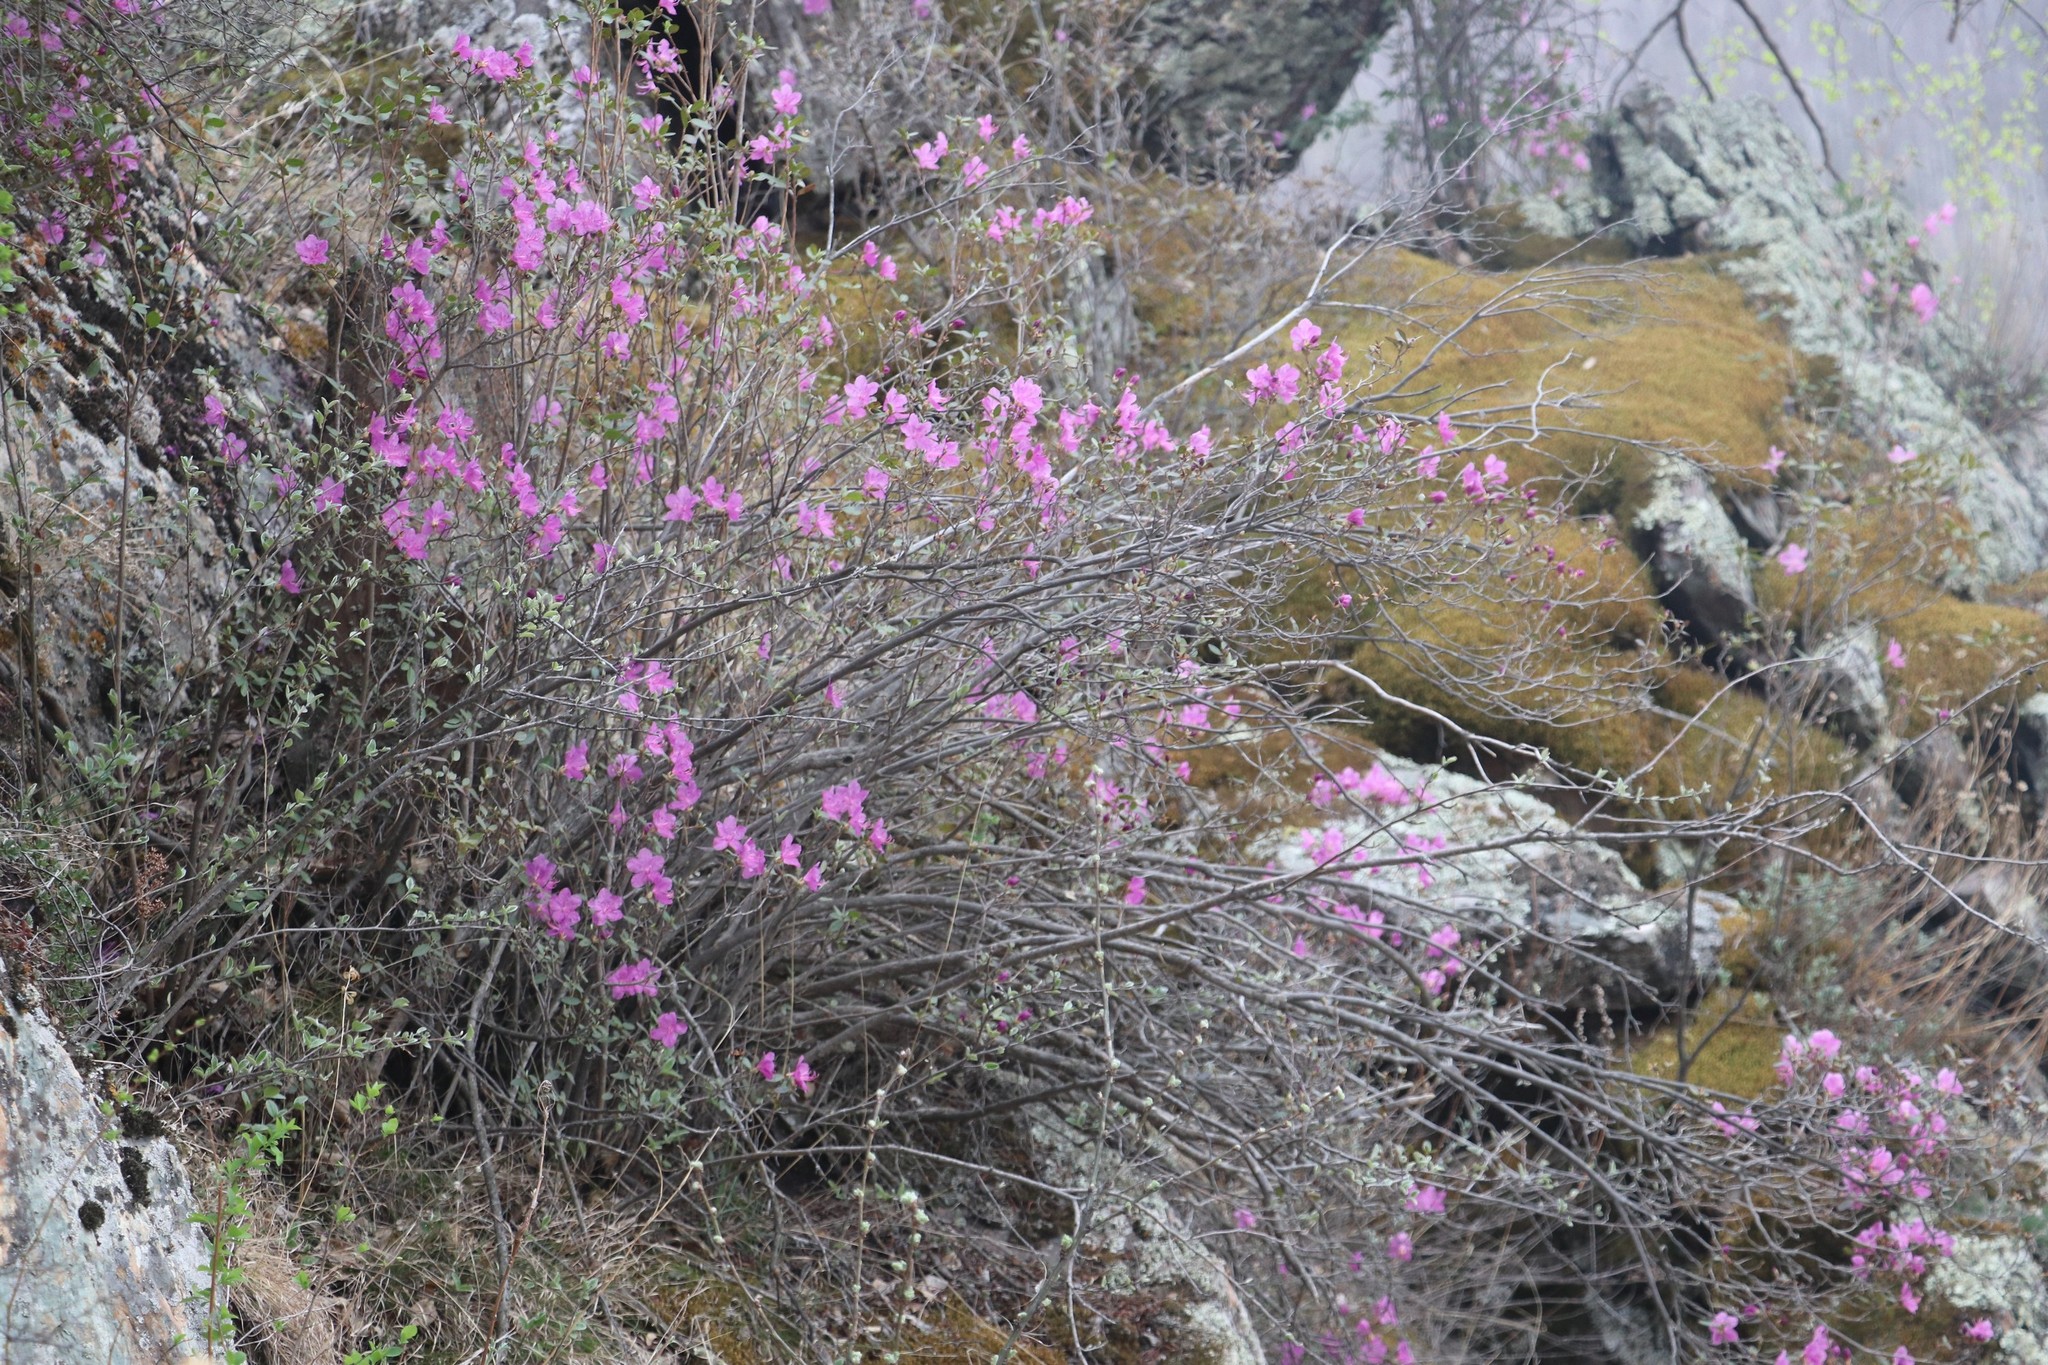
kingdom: Plantae
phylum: Tracheophyta
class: Magnoliopsida
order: Ericales
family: Ericaceae
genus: Rhododendron
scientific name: Rhododendron dauricum
